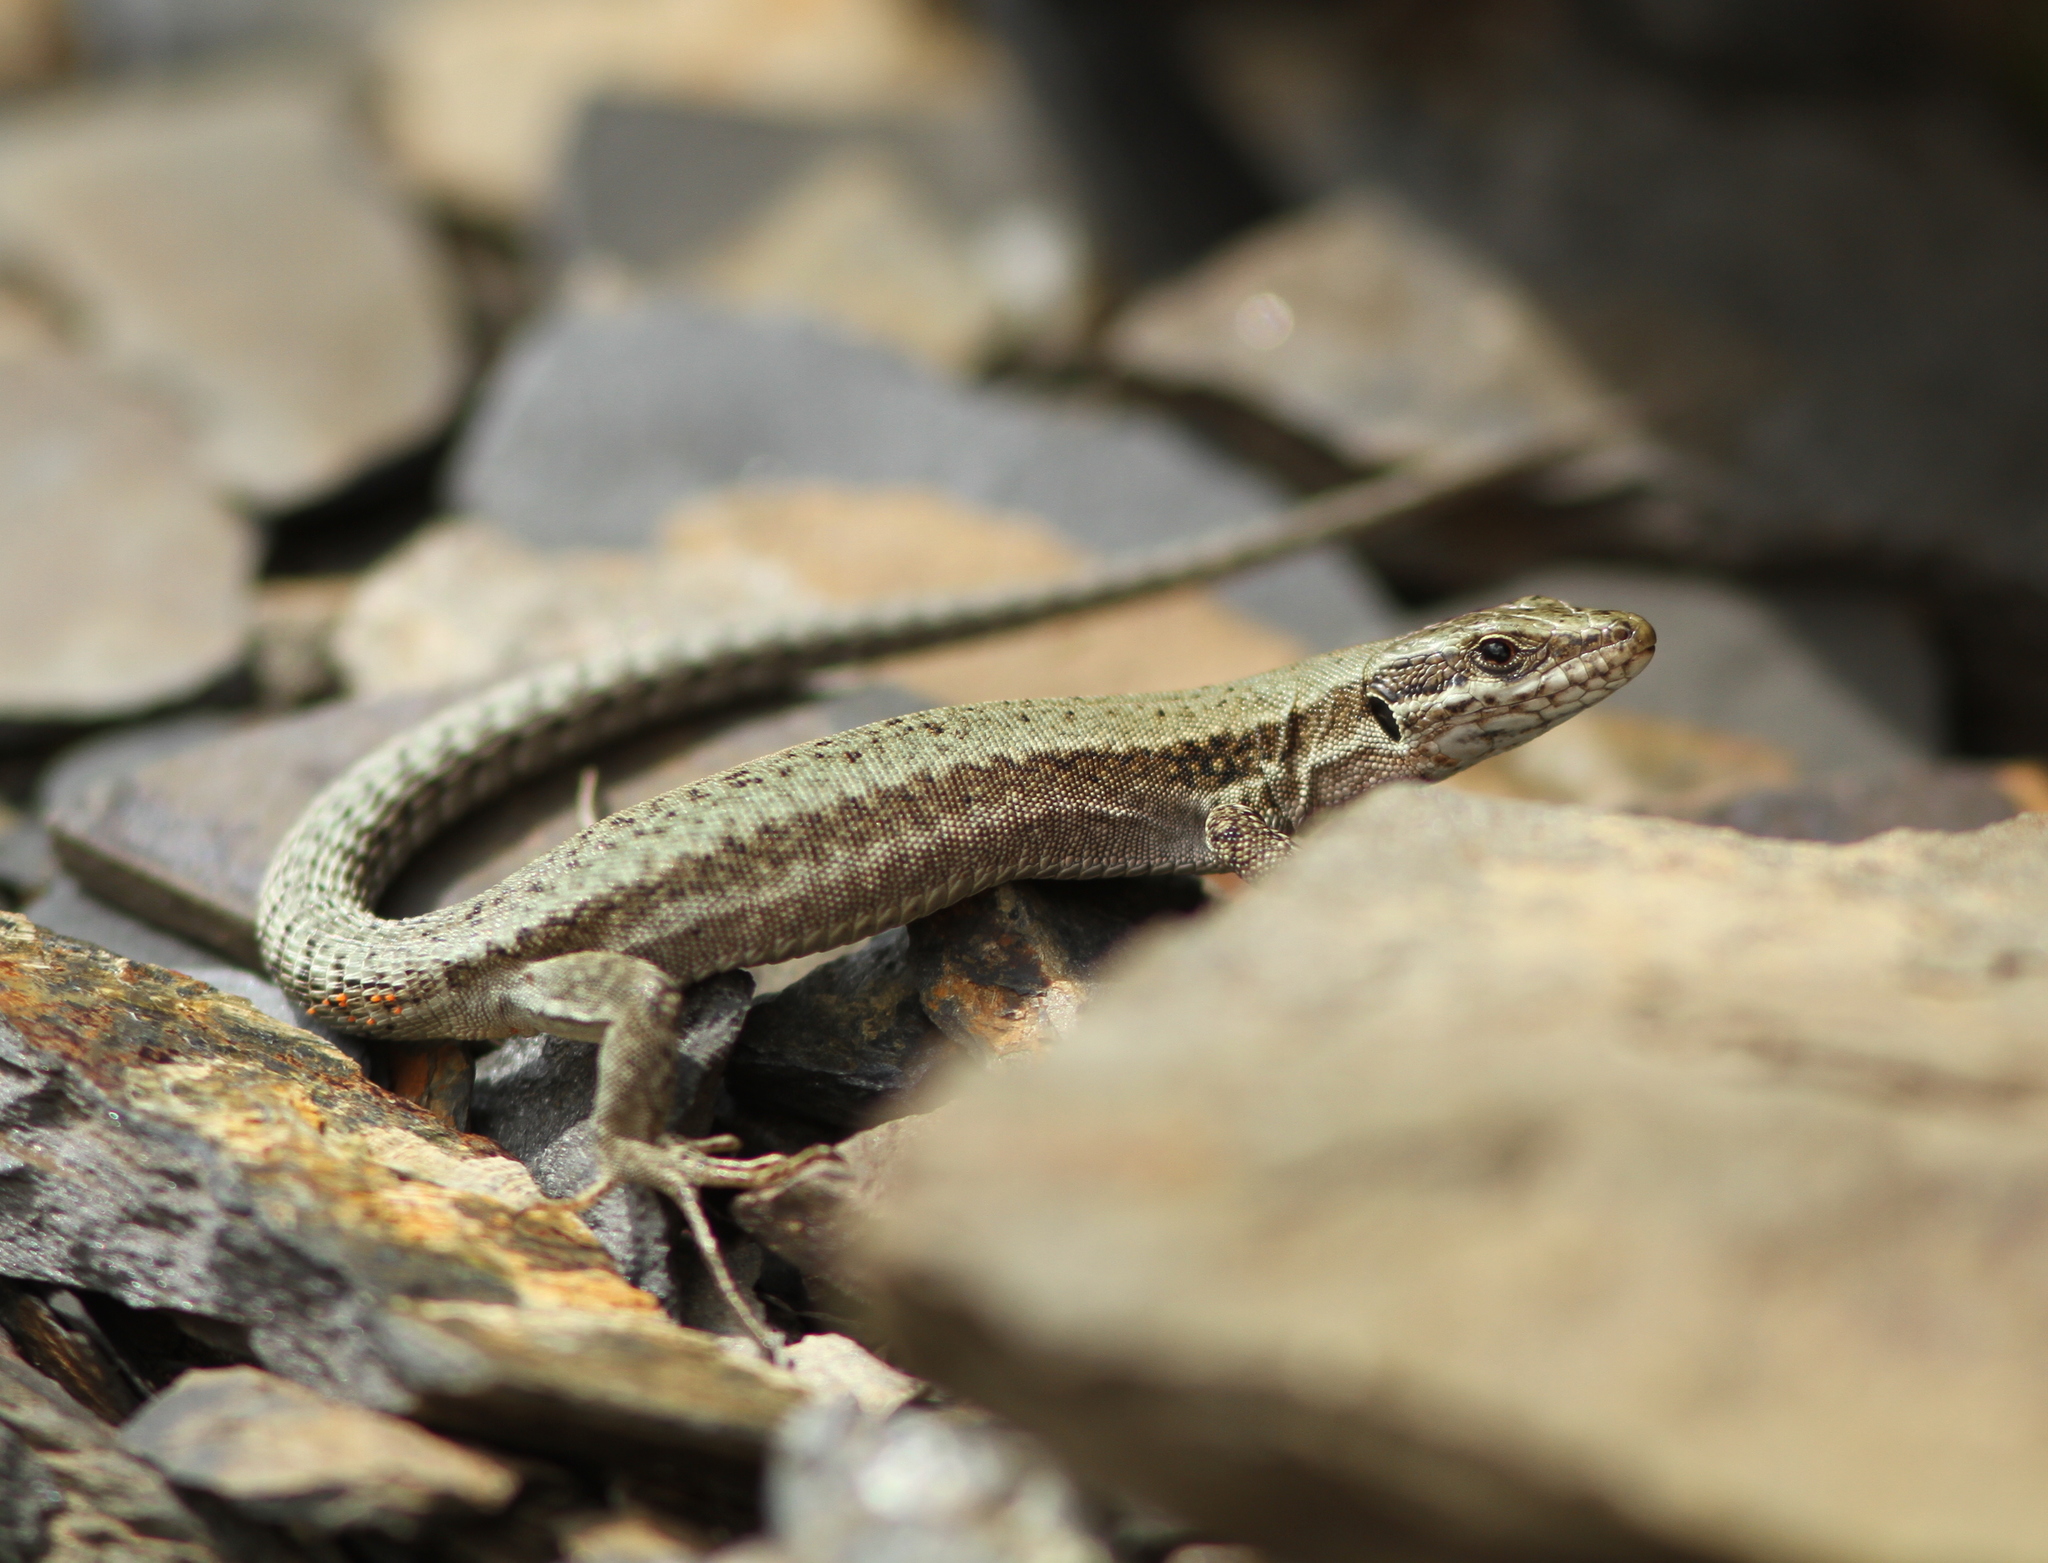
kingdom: Animalia
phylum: Chordata
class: Squamata
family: Lacertidae
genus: Podarcis
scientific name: Podarcis muralis
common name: Common wall lizard
